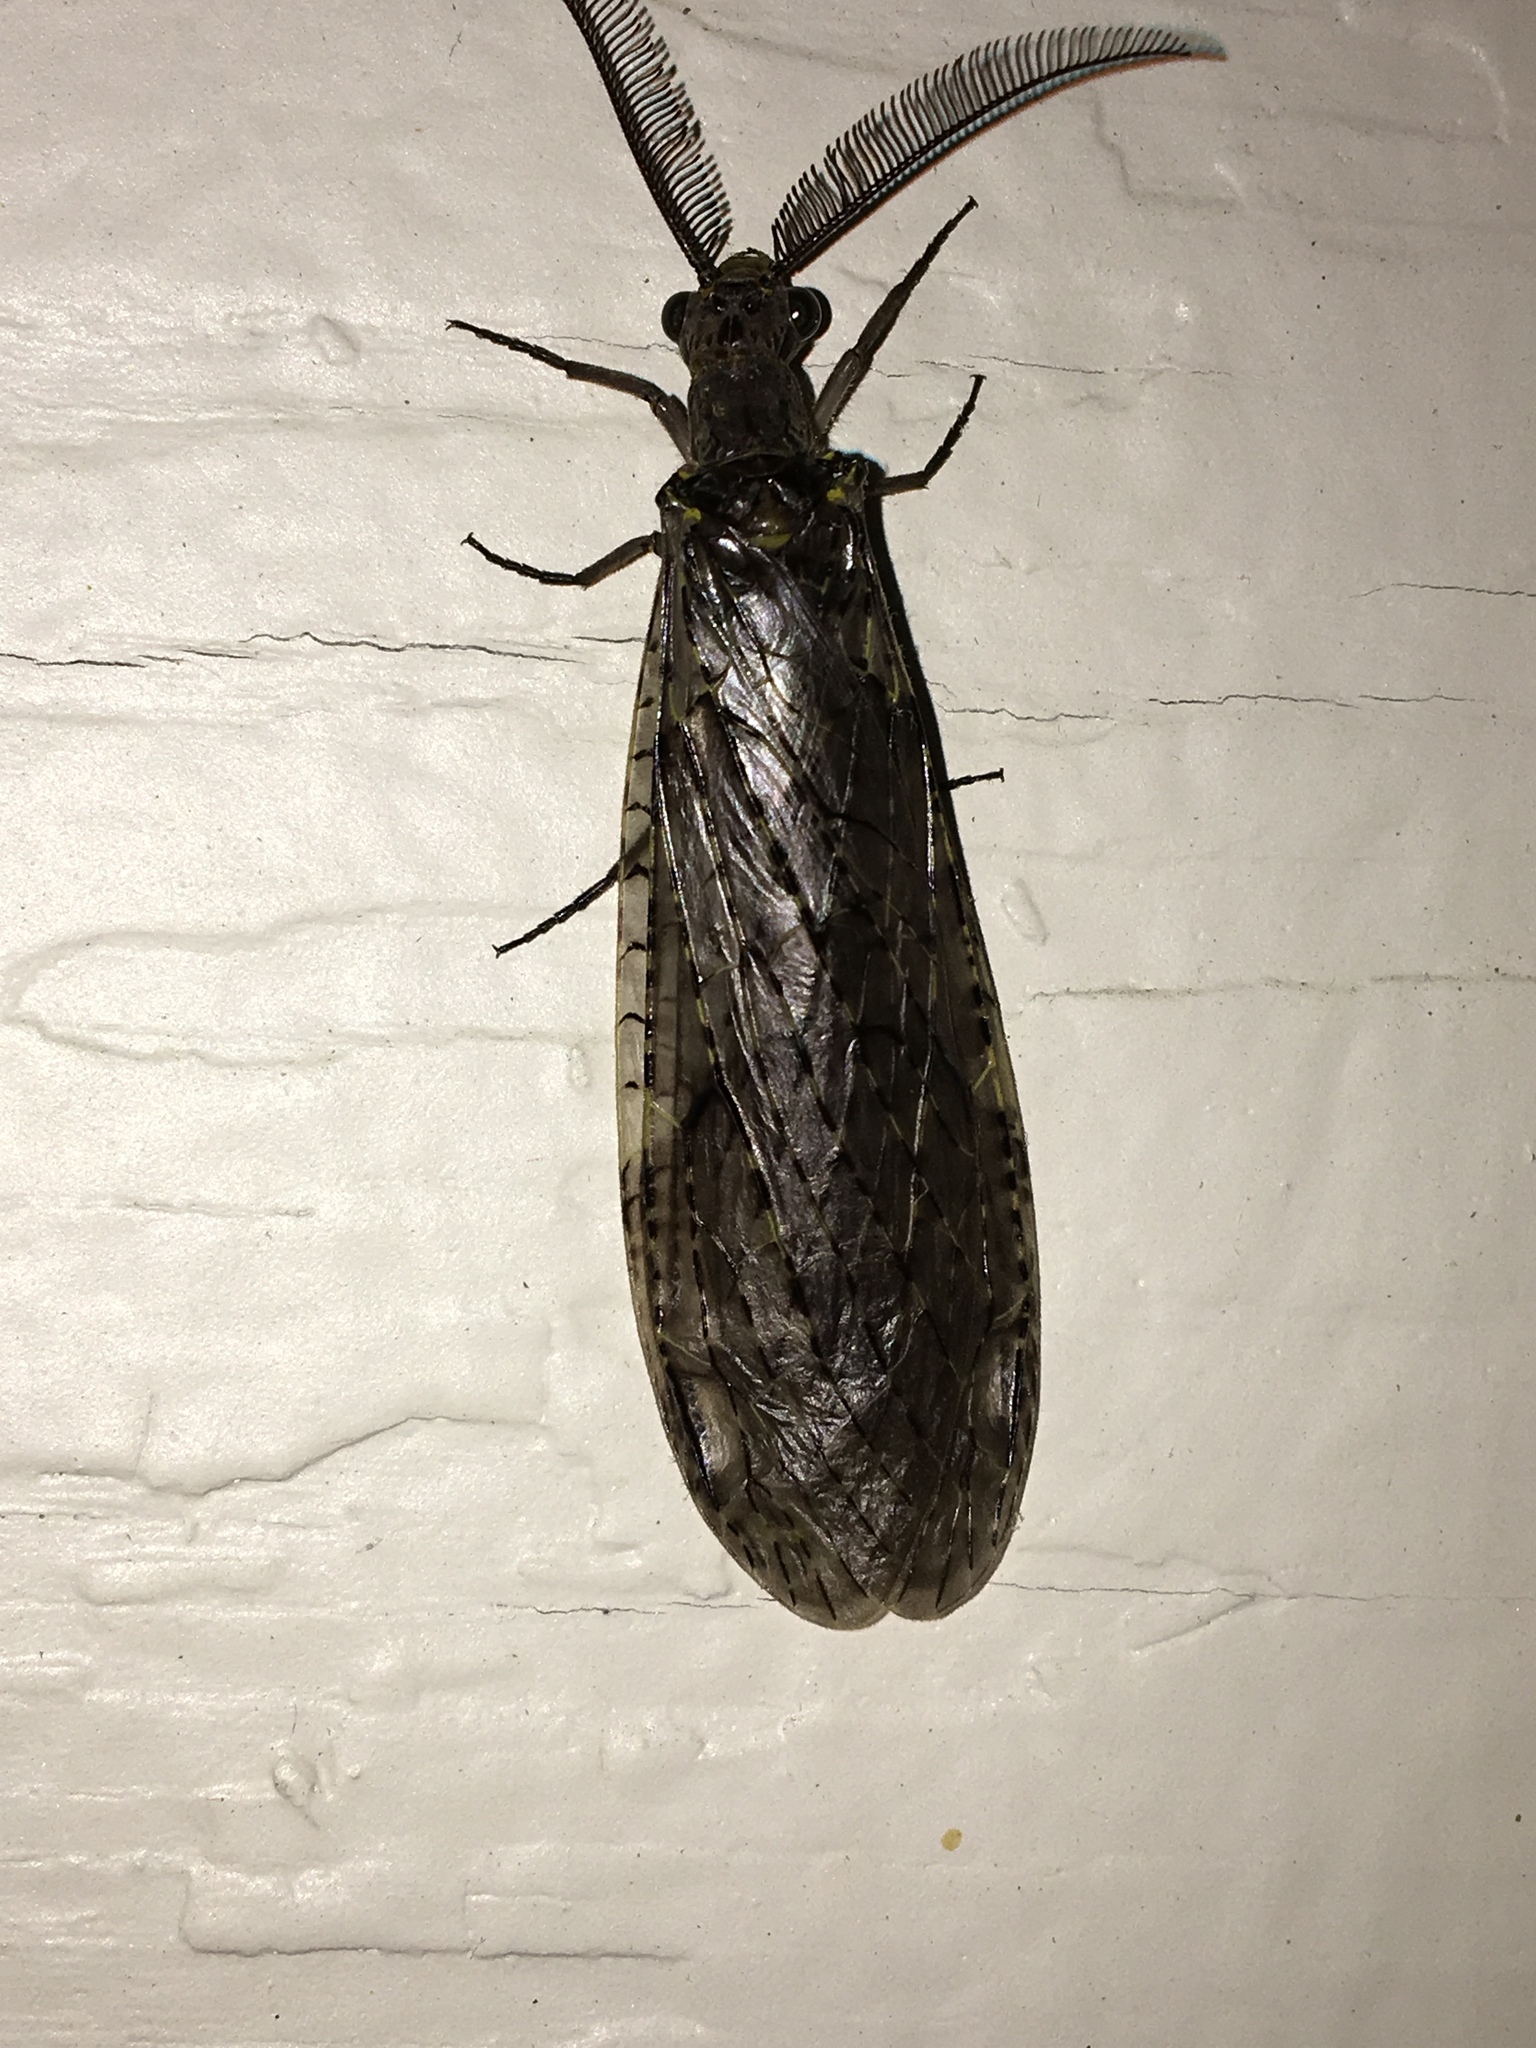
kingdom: Animalia
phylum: Arthropoda
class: Insecta
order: Megaloptera
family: Corydalidae
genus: Chauliodes
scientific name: Chauliodes rastricornis
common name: Spring fishfly
